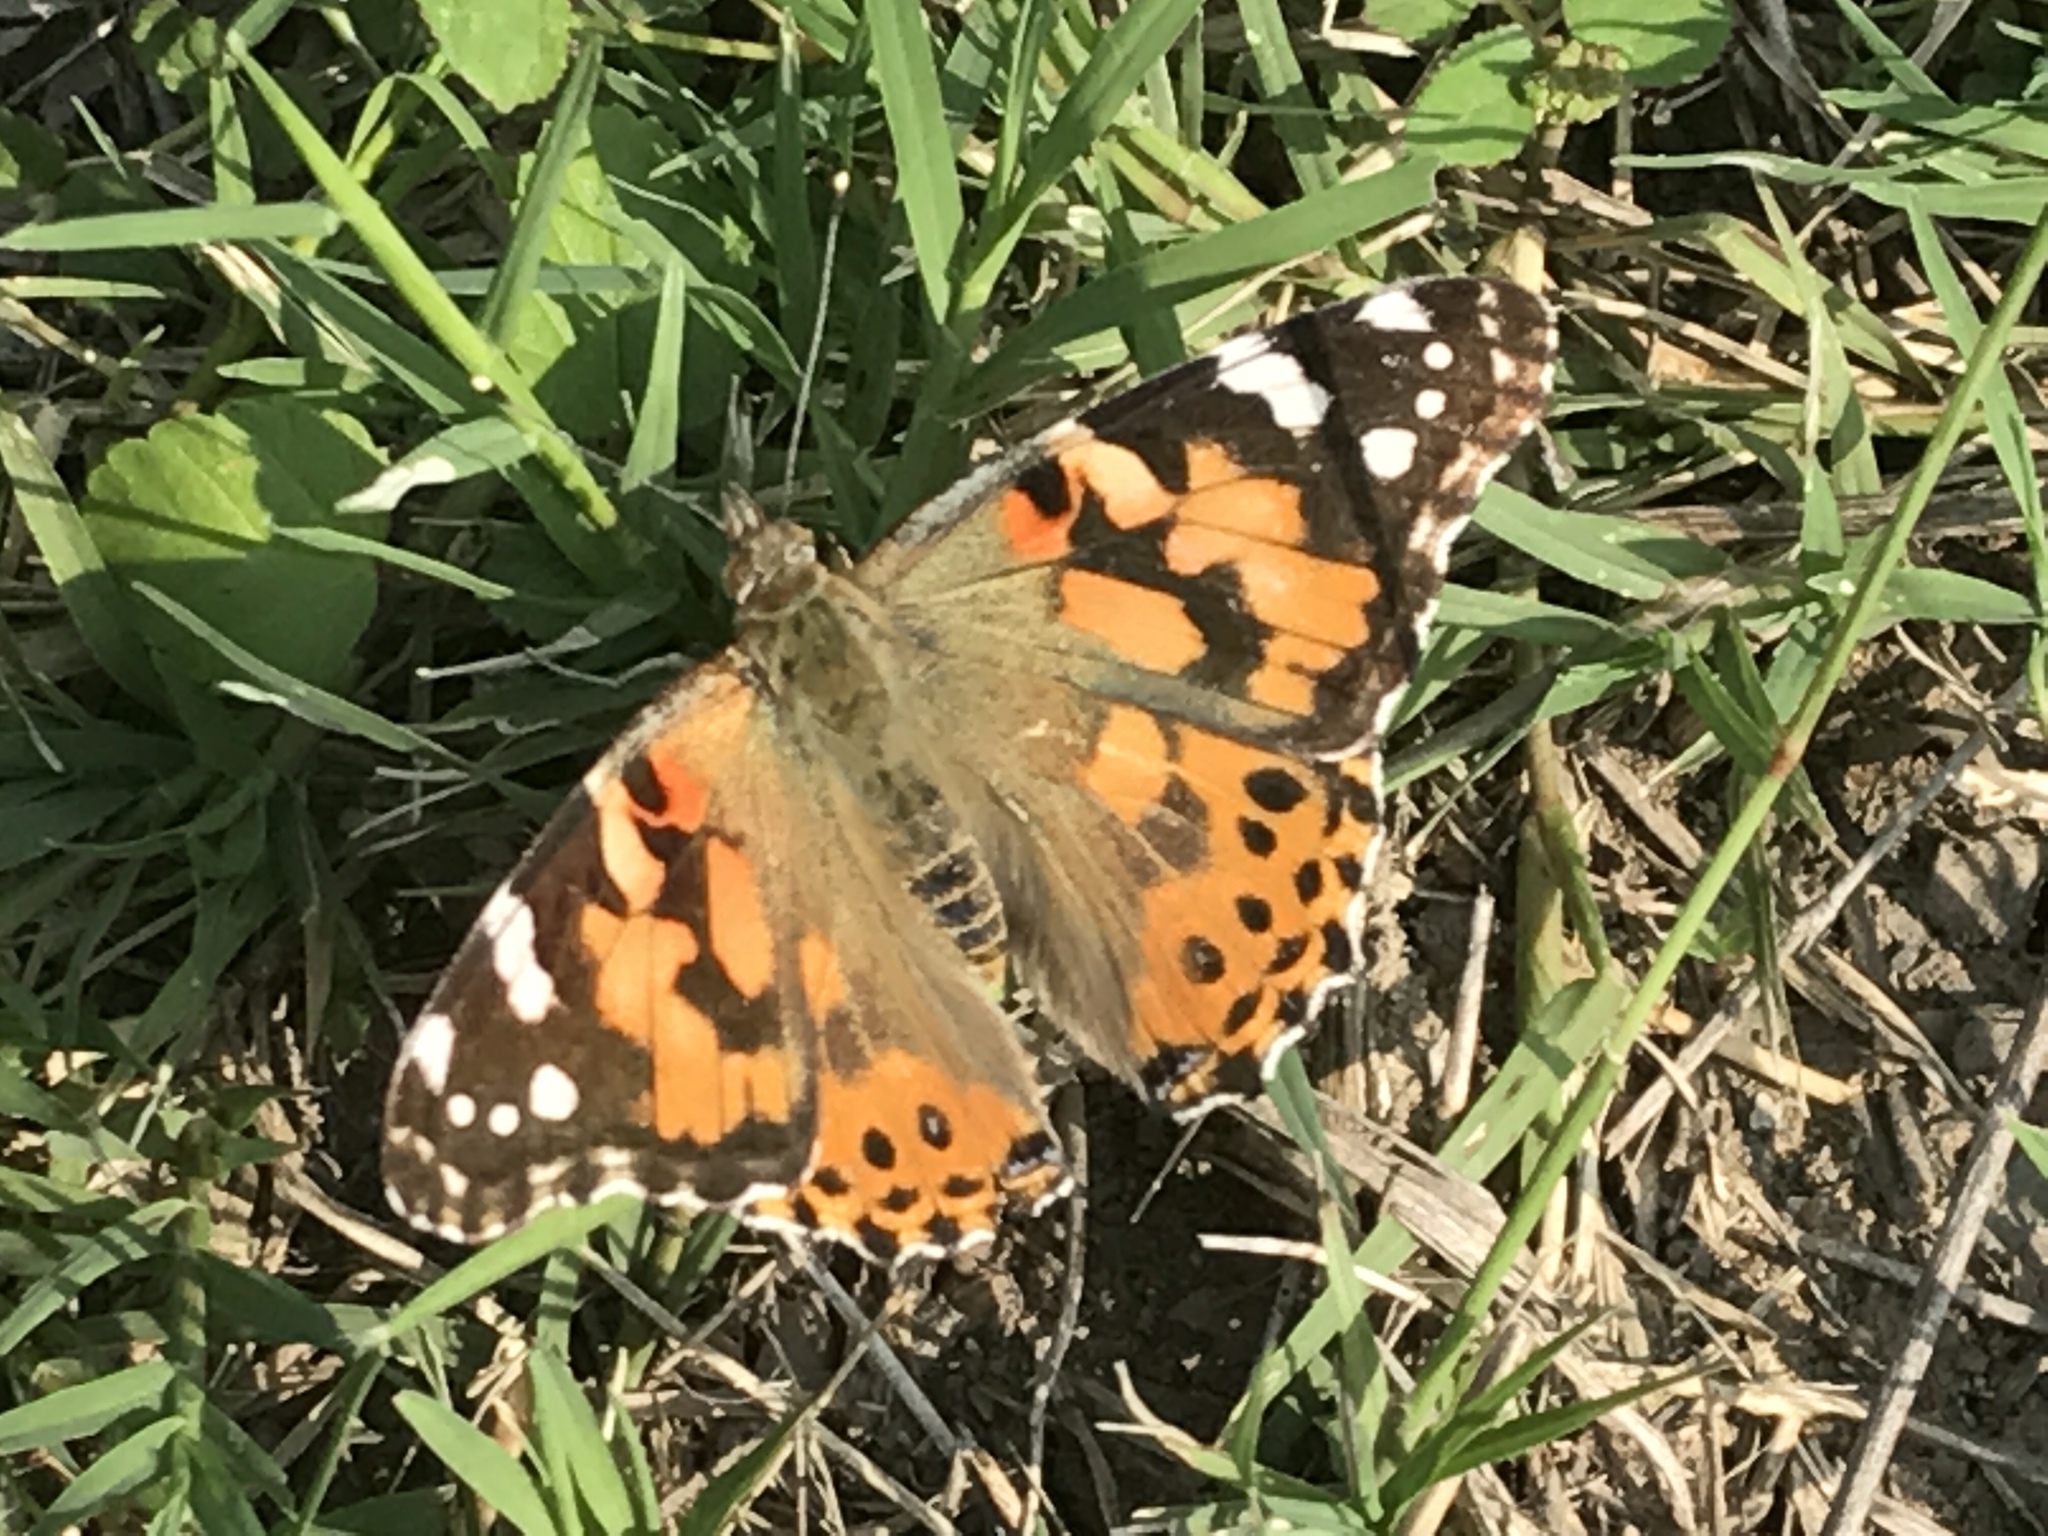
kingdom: Animalia
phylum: Arthropoda
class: Insecta
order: Lepidoptera
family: Nymphalidae
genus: Vanessa
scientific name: Vanessa cardui
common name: Painted lady
